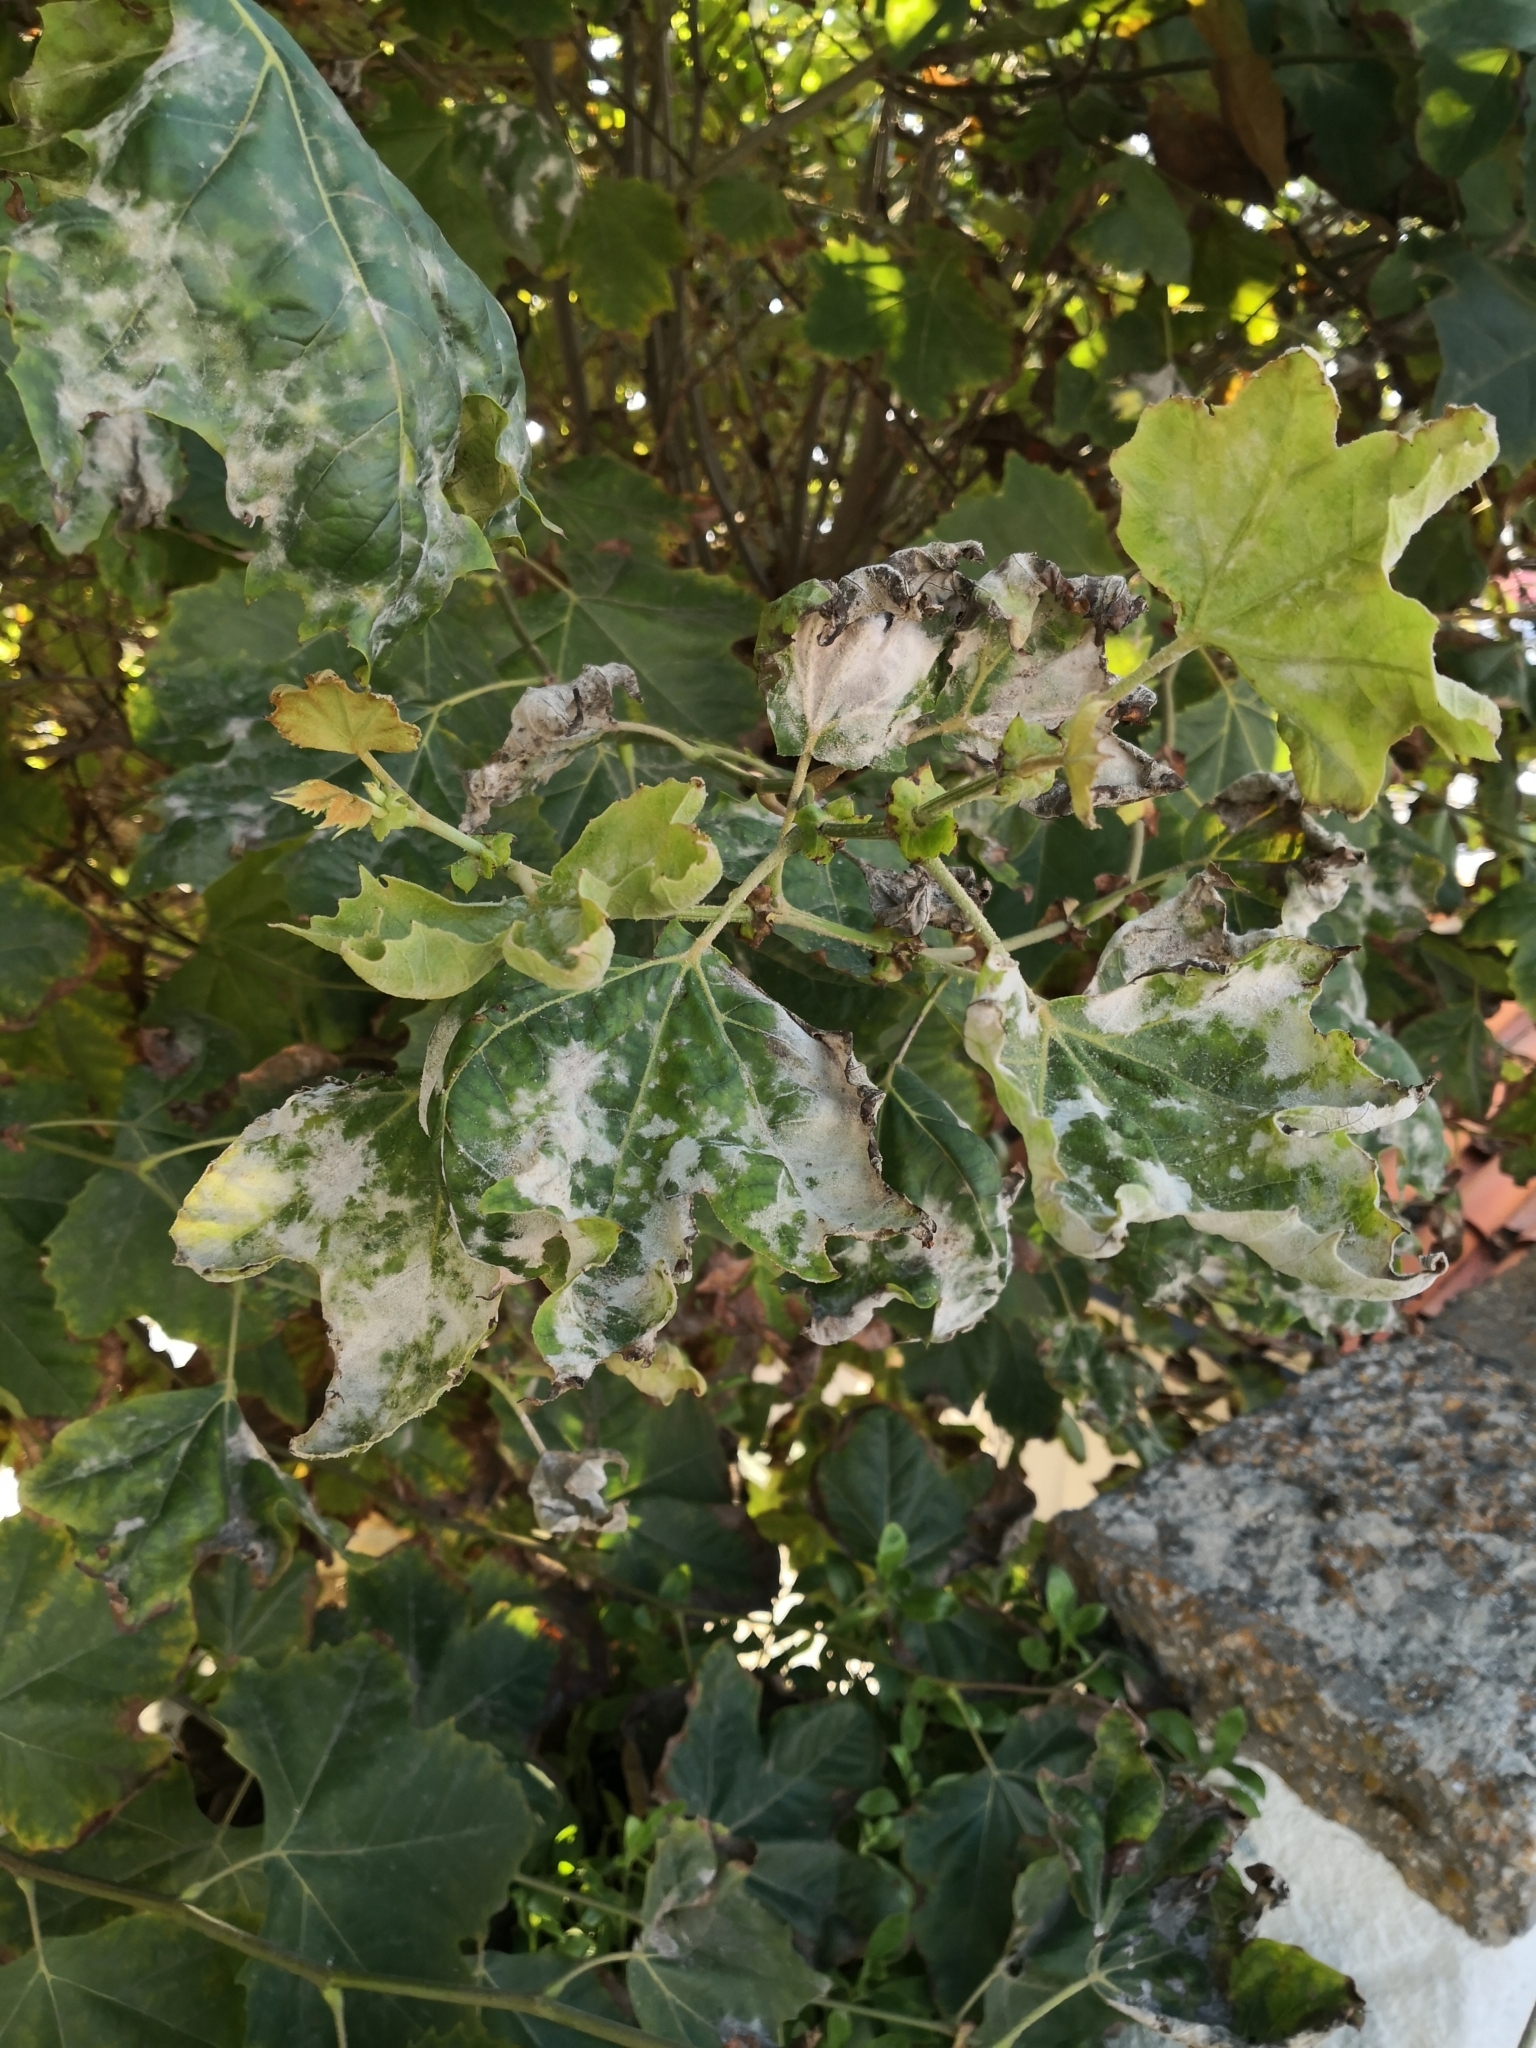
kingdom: Fungi
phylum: Ascomycota
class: Leotiomycetes
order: Helotiales
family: Erysiphaceae
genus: Erysiphe
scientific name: Erysiphe platani
